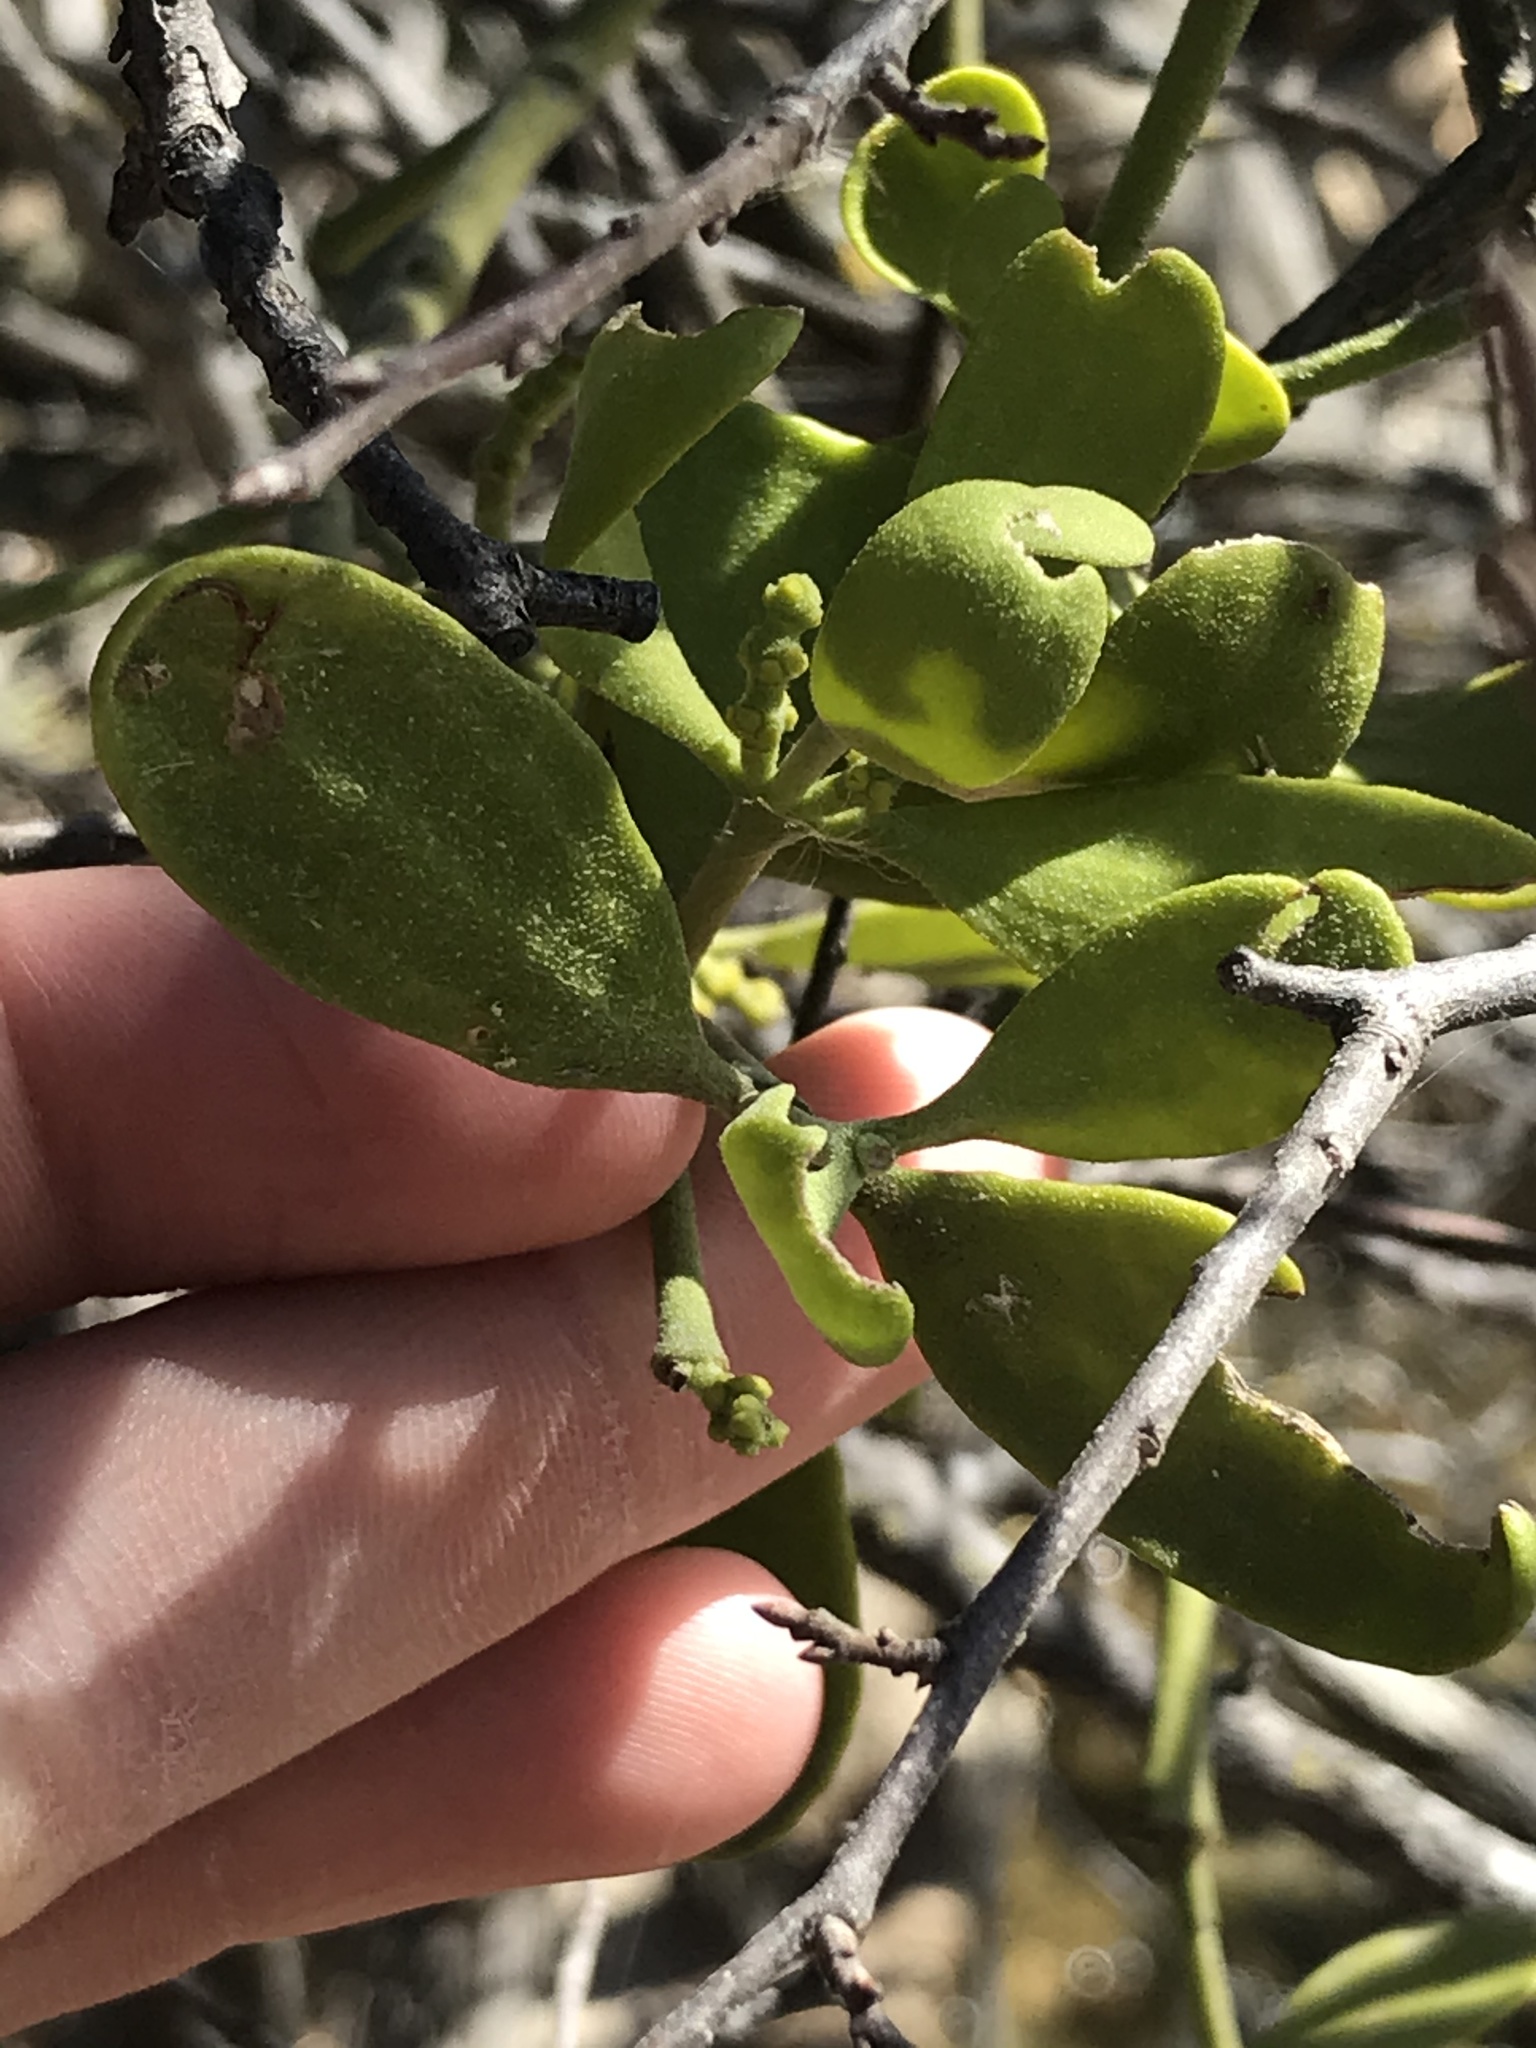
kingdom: Plantae
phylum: Tracheophyta
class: Magnoliopsida
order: Santalales
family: Viscaceae
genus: Phoradendron
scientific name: Phoradendron leucarpum
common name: Pacific mistletoe
